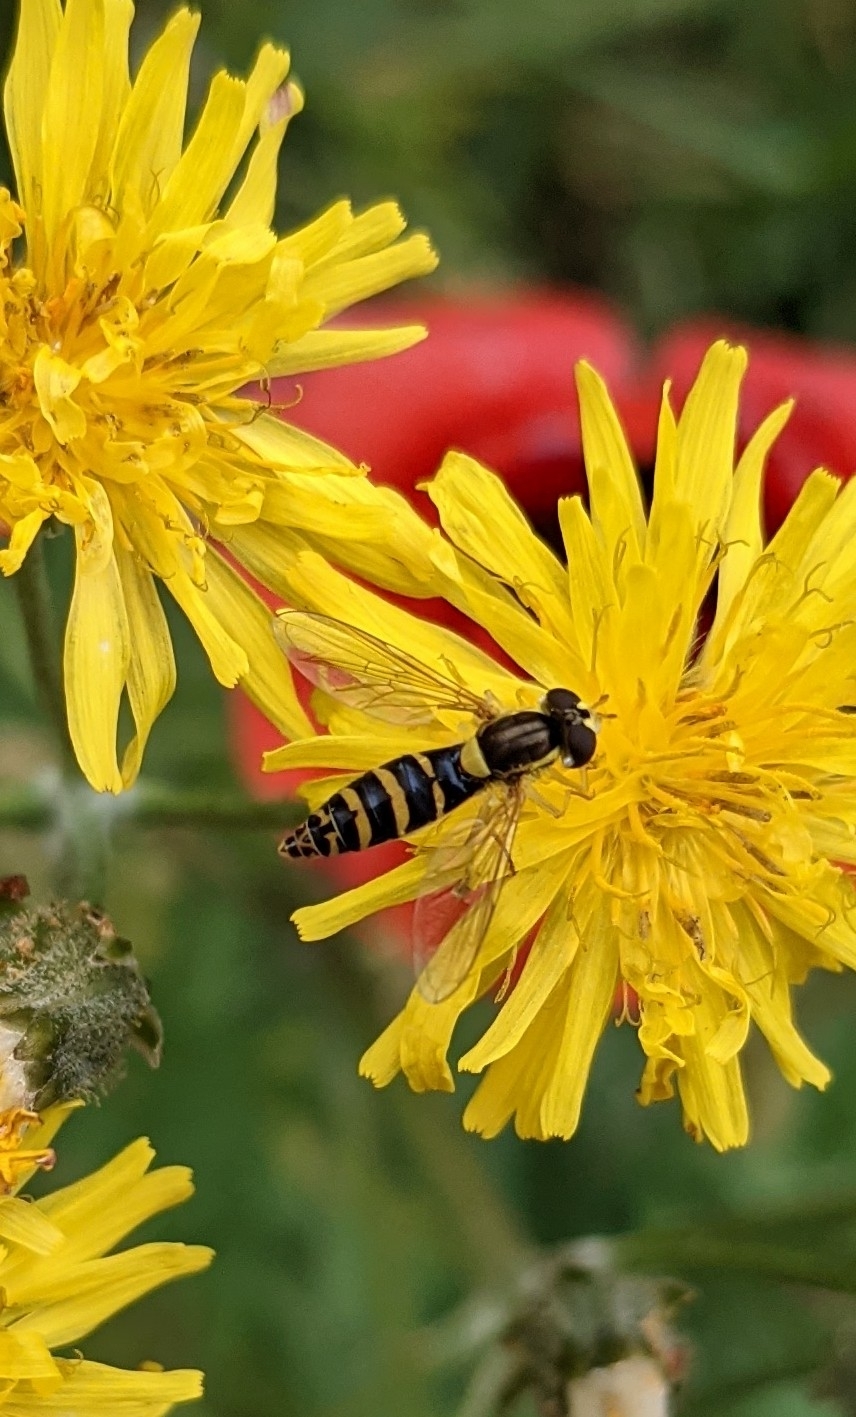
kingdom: Animalia
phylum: Arthropoda
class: Insecta
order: Diptera
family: Syrphidae
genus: Sphaerophoria
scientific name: Sphaerophoria
